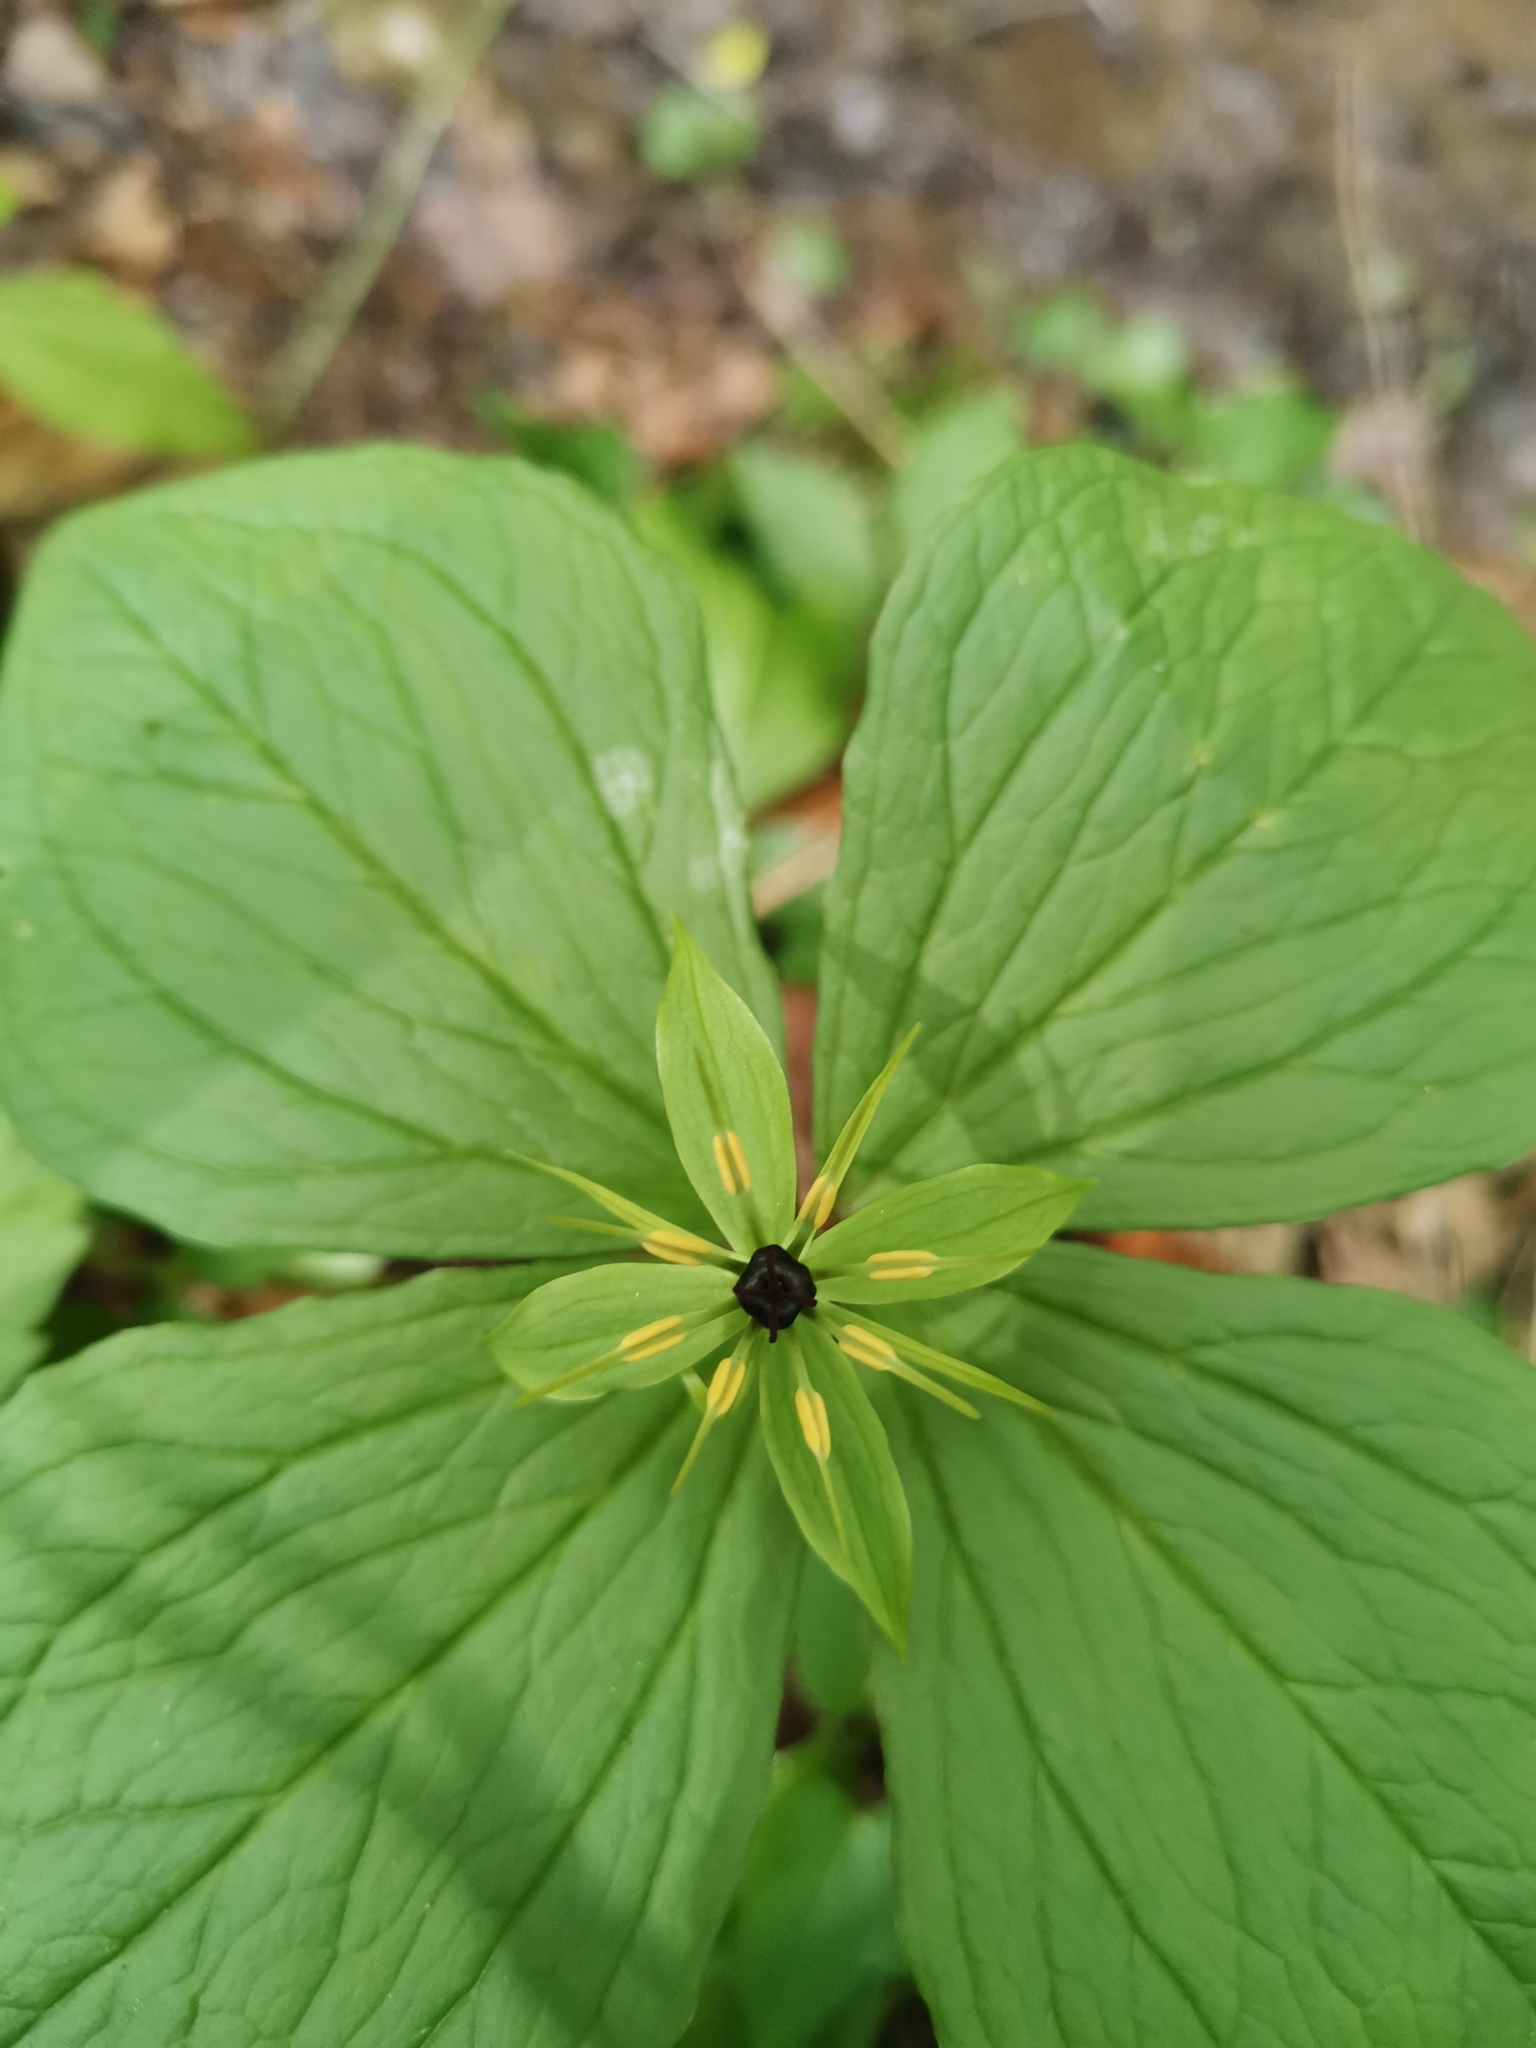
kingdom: Plantae
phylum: Tracheophyta
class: Liliopsida
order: Liliales
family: Melanthiaceae
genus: Paris
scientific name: Paris quadrifolia
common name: Herb-paris
